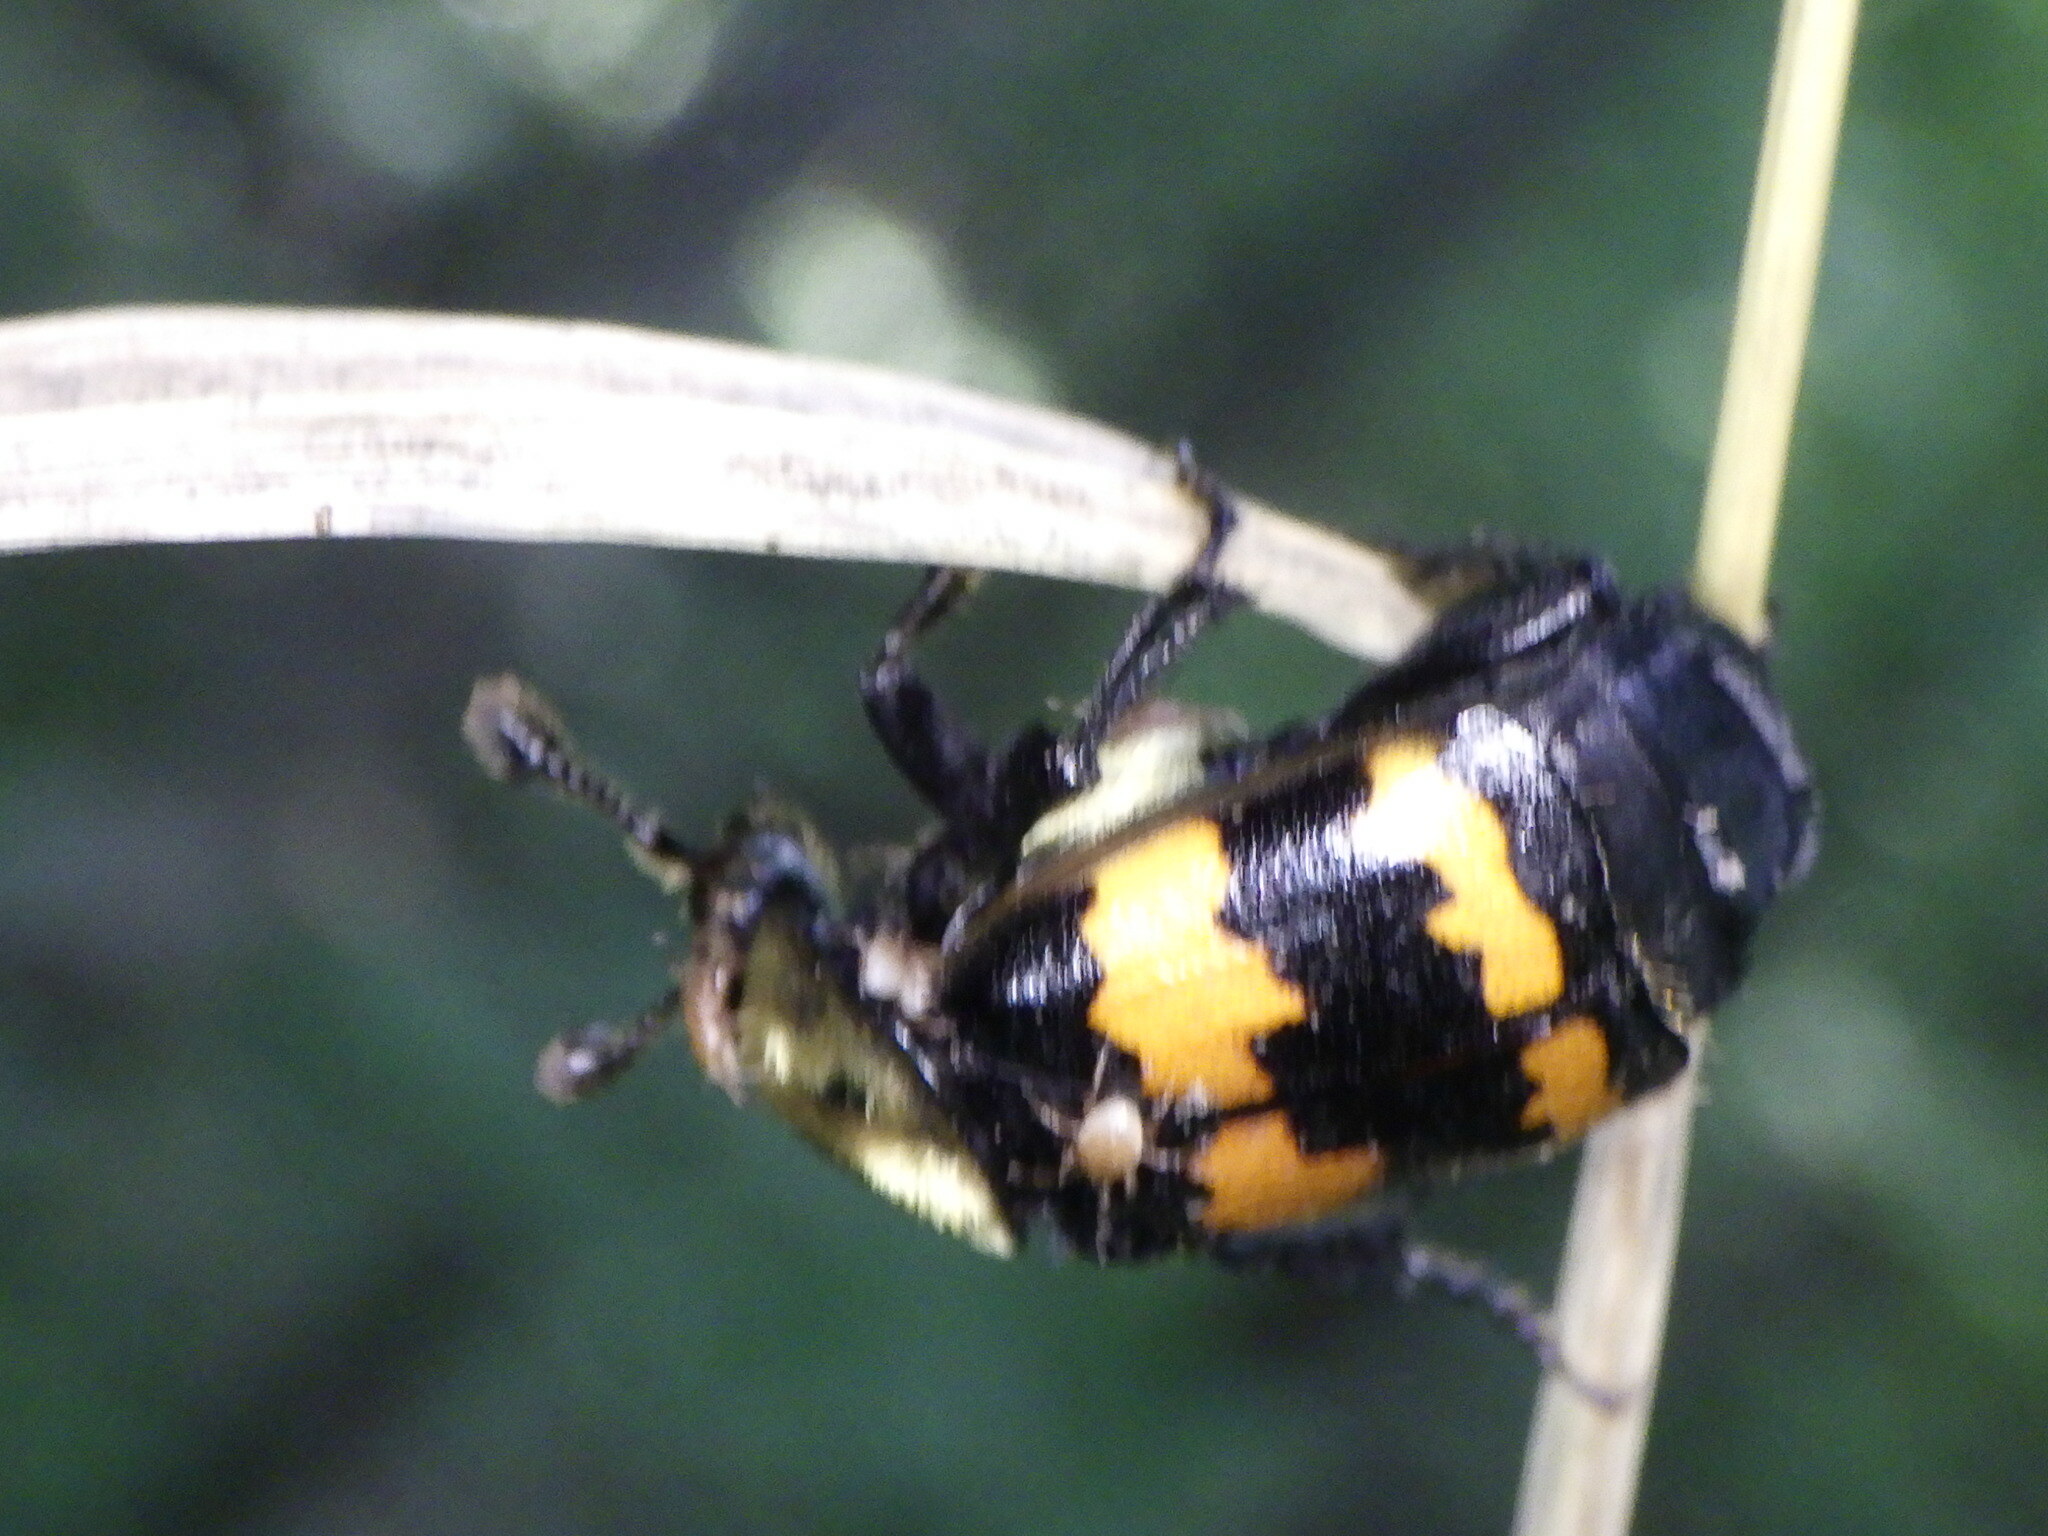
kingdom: Animalia
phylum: Arthropoda
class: Insecta
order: Coleoptera
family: Staphylinidae
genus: Nicrophorus
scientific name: Nicrophorus tomentosus
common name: Tomentose burying beetle
